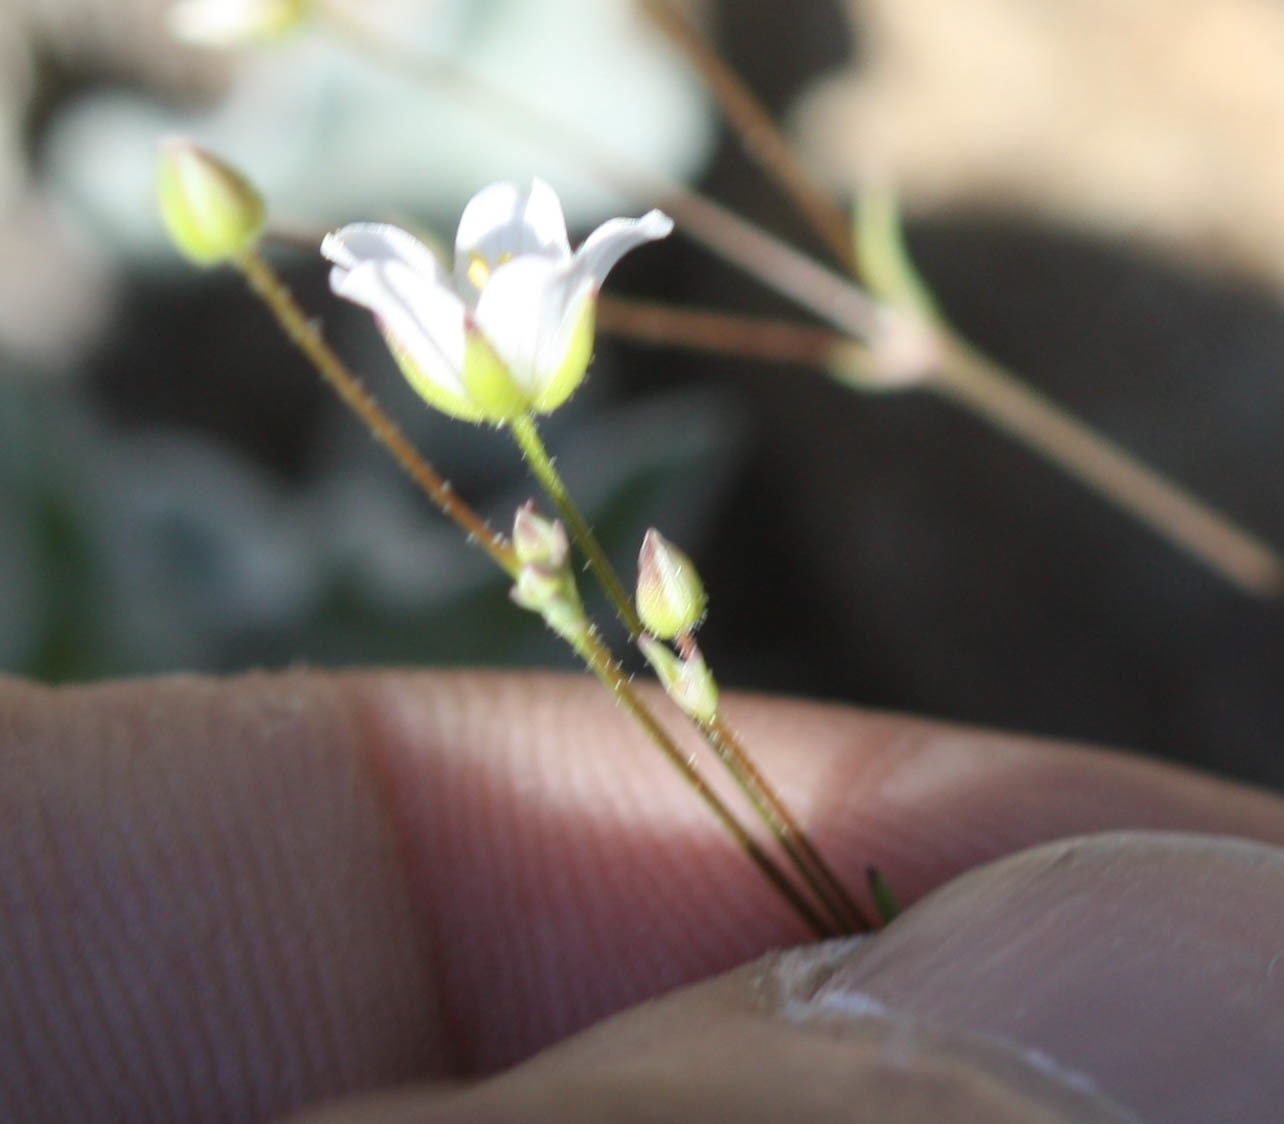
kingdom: Plantae
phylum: Tracheophyta
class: Magnoliopsida
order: Caryophyllales
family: Caryophyllaceae
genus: Sabulina
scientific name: Sabulina douglasii
